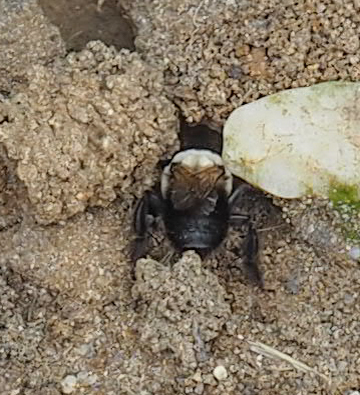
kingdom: Animalia
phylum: Arthropoda
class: Insecta
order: Hymenoptera
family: Apidae
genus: Anthophora
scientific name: Anthophora abrupta
